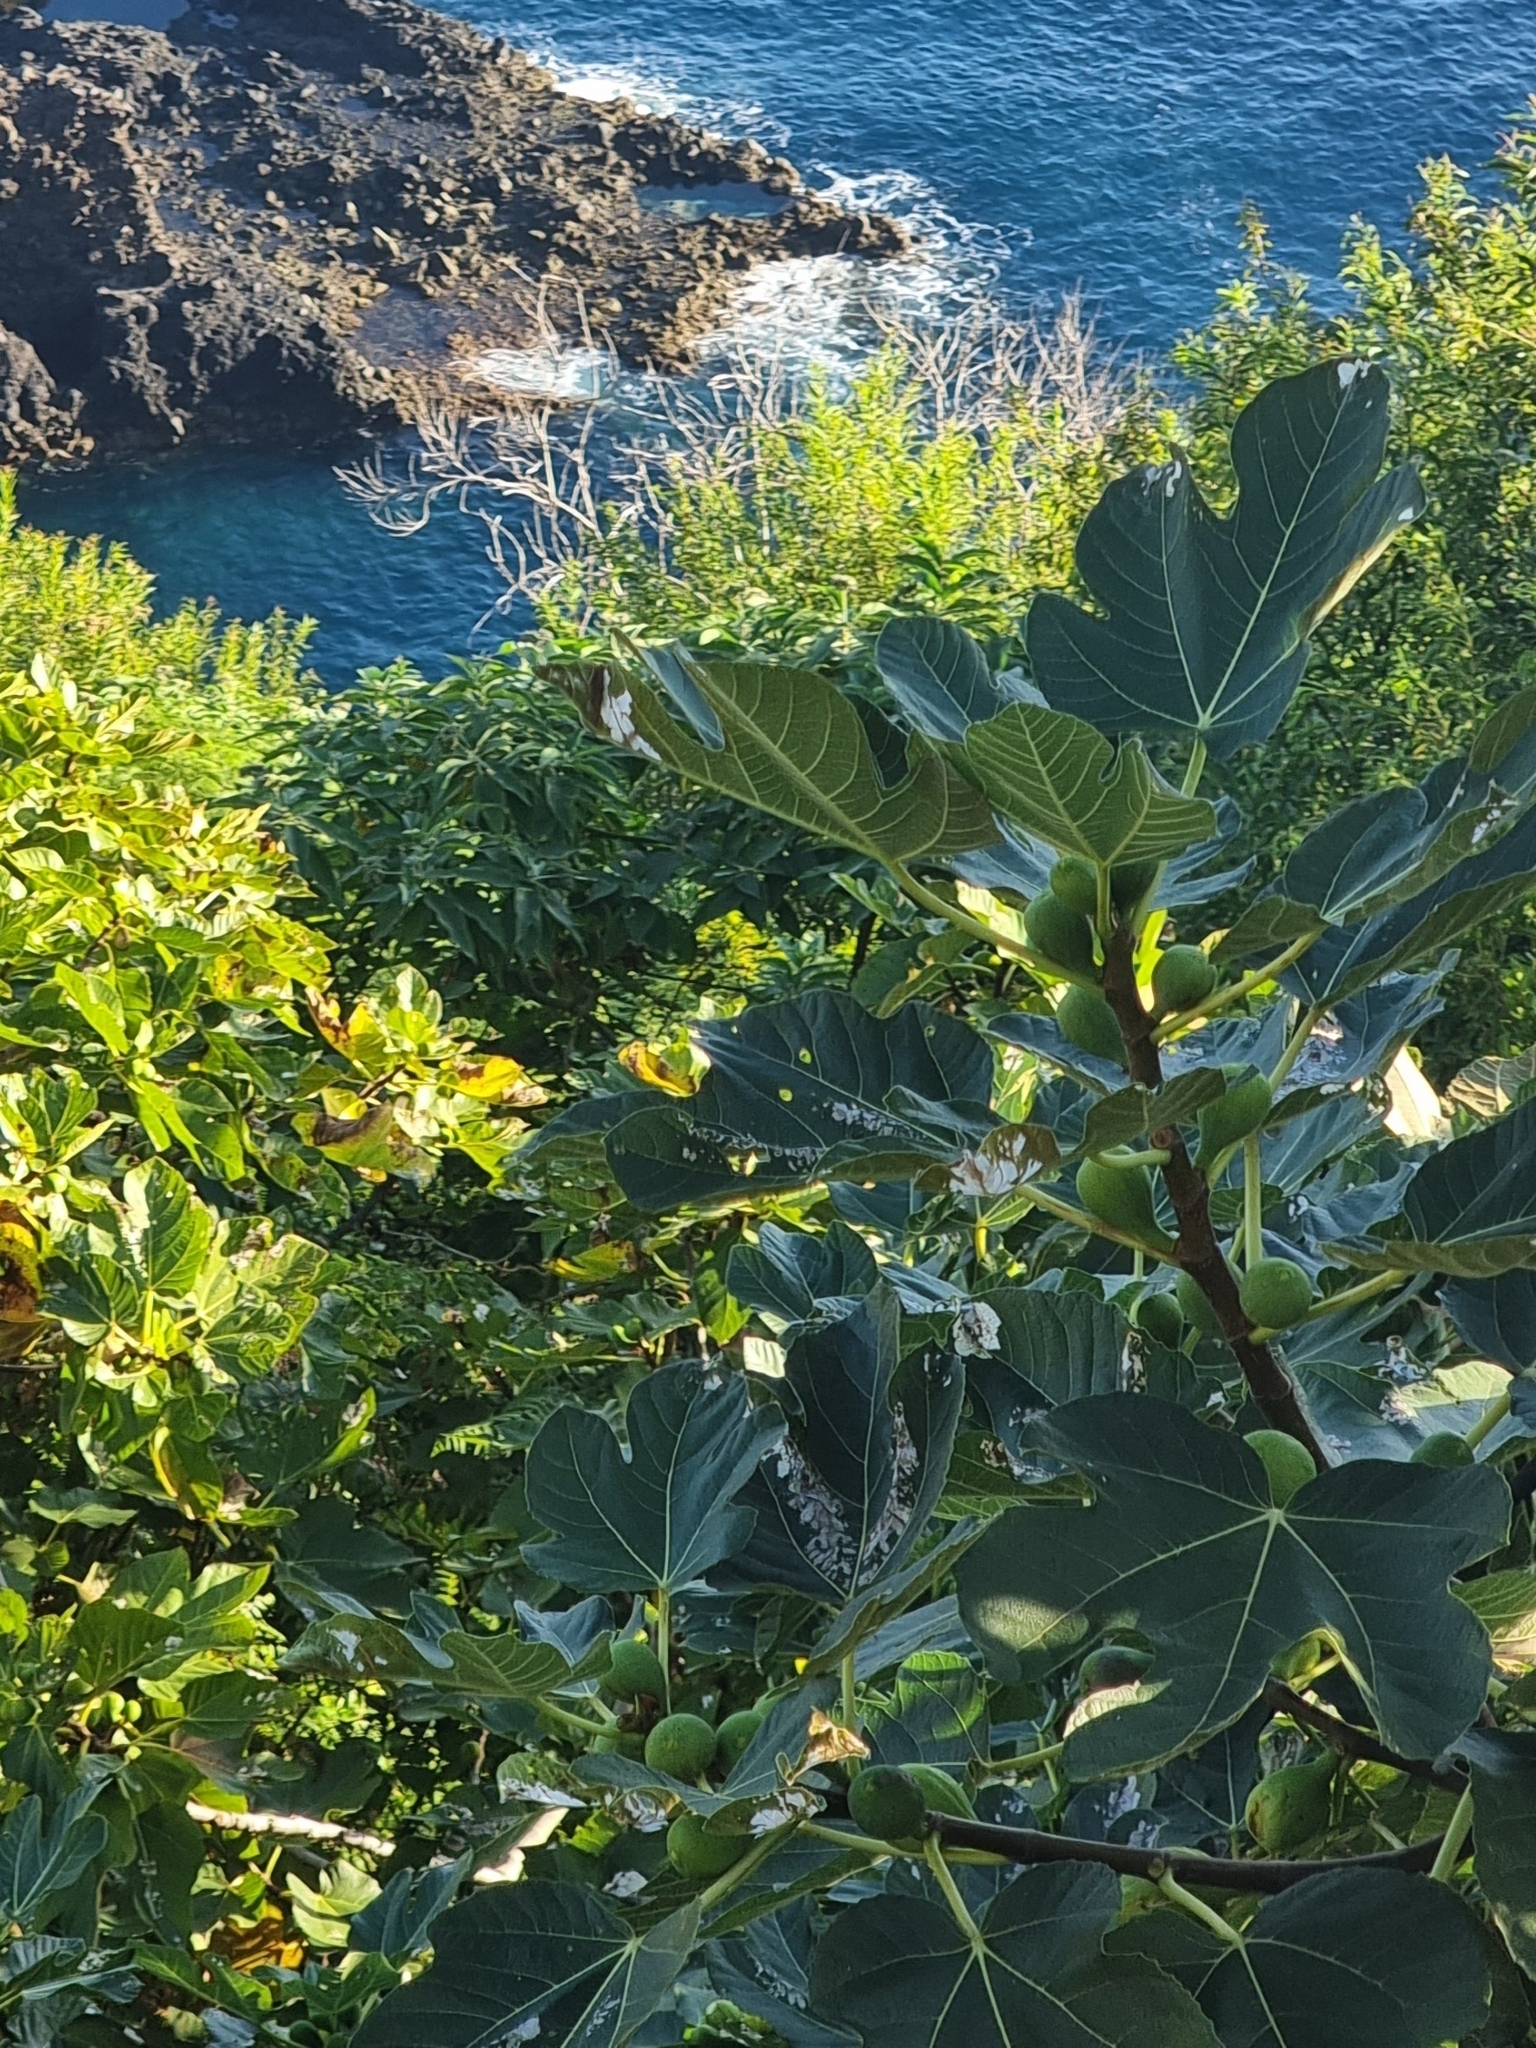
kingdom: Plantae
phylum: Tracheophyta
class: Magnoliopsida
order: Rosales
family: Moraceae
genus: Ficus
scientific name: Ficus carica
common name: Fig
